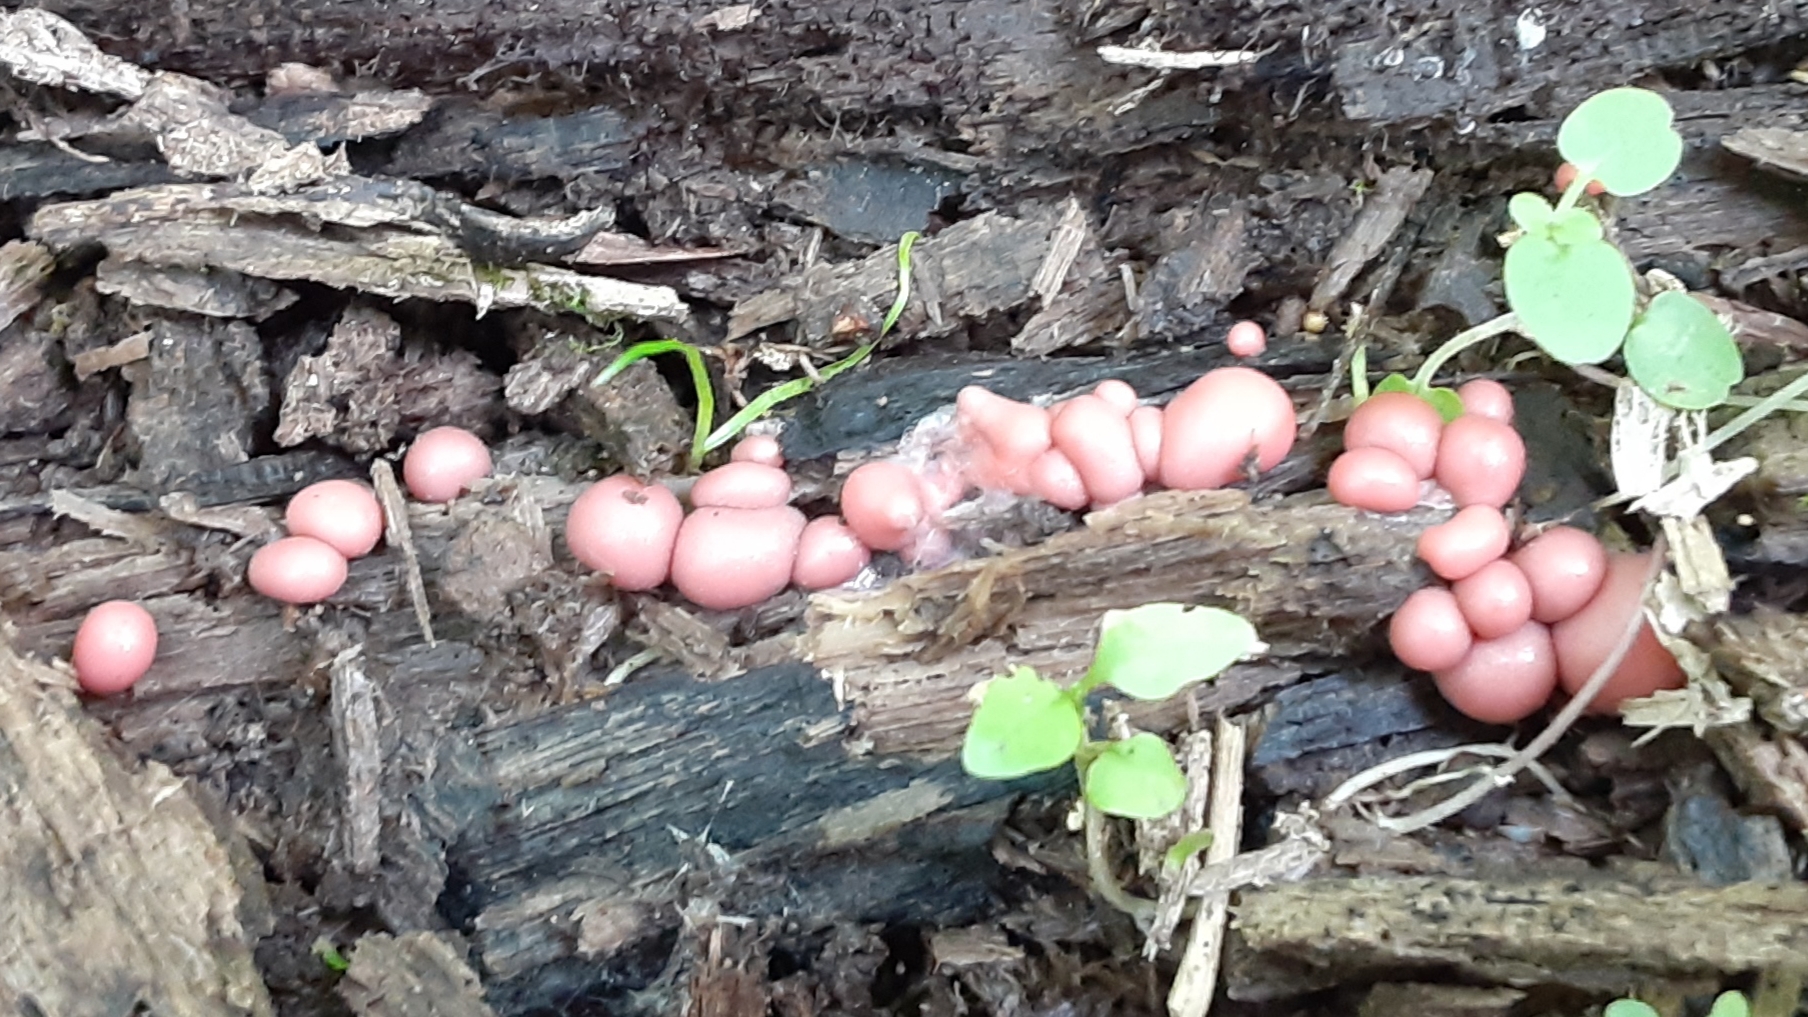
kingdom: Protozoa
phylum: Mycetozoa
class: Myxomycetes
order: Cribrariales
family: Tubiferaceae
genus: Lycogala
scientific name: Lycogala epidendrum
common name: Wolf's milk
